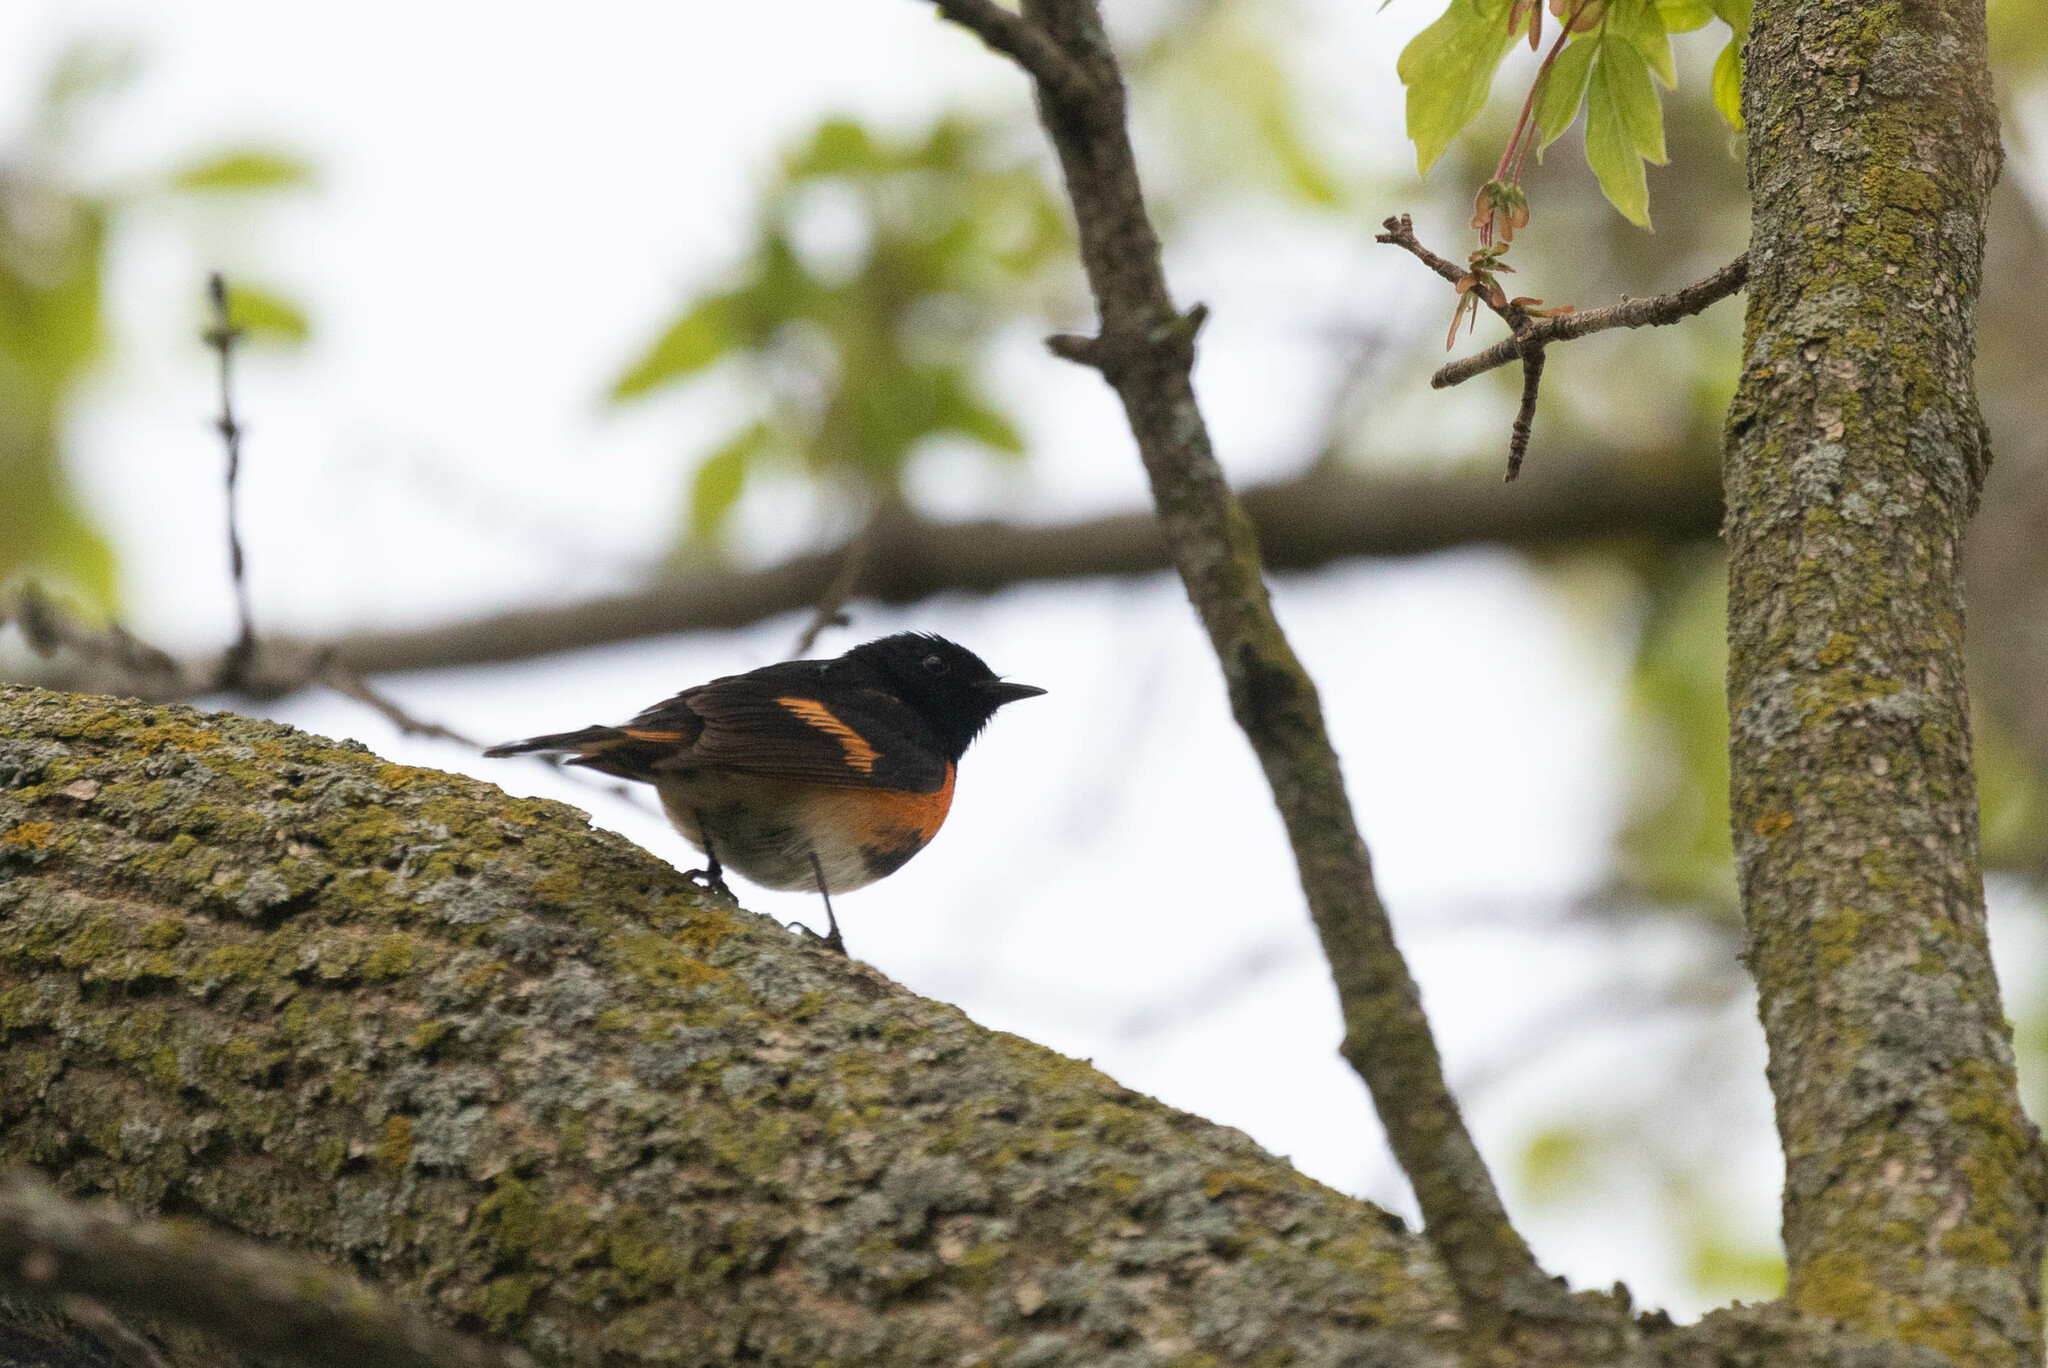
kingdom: Animalia
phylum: Chordata
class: Aves
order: Passeriformes
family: Parulidae
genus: Setophaga
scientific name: Setophaga ruticilla
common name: American redstart
